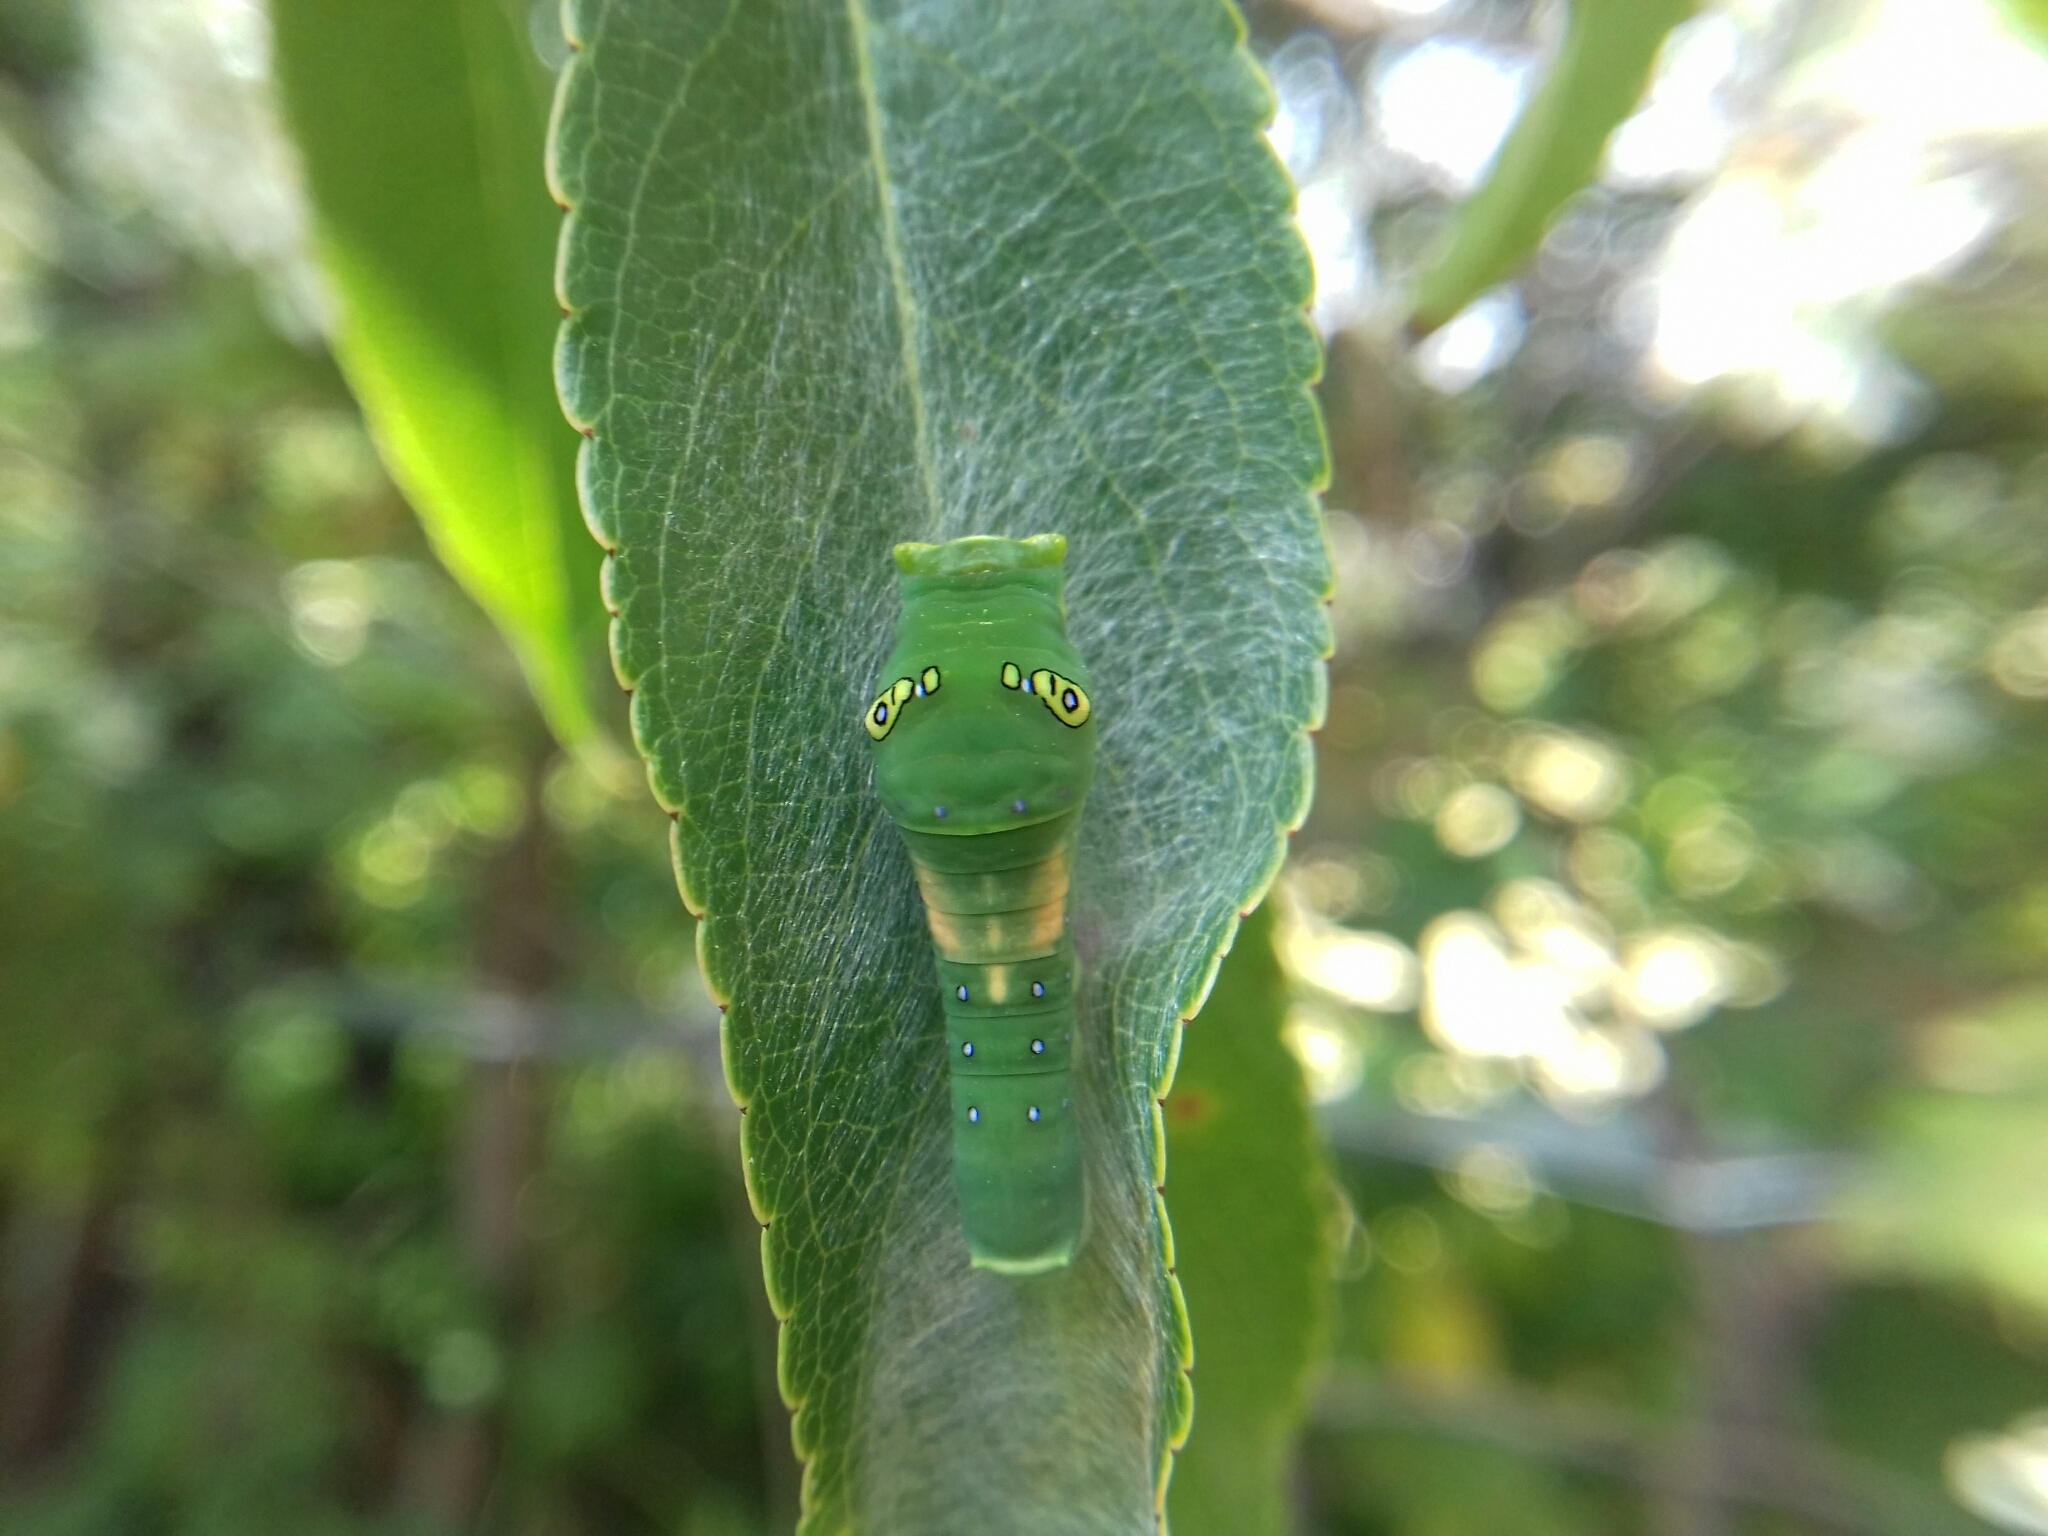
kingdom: Animalia
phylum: Arthropoda
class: Insecta
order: Lepidoptera
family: Papilionidae
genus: Papilio
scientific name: Papilio multicaudata
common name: Two-tailed tiger swallowtail
